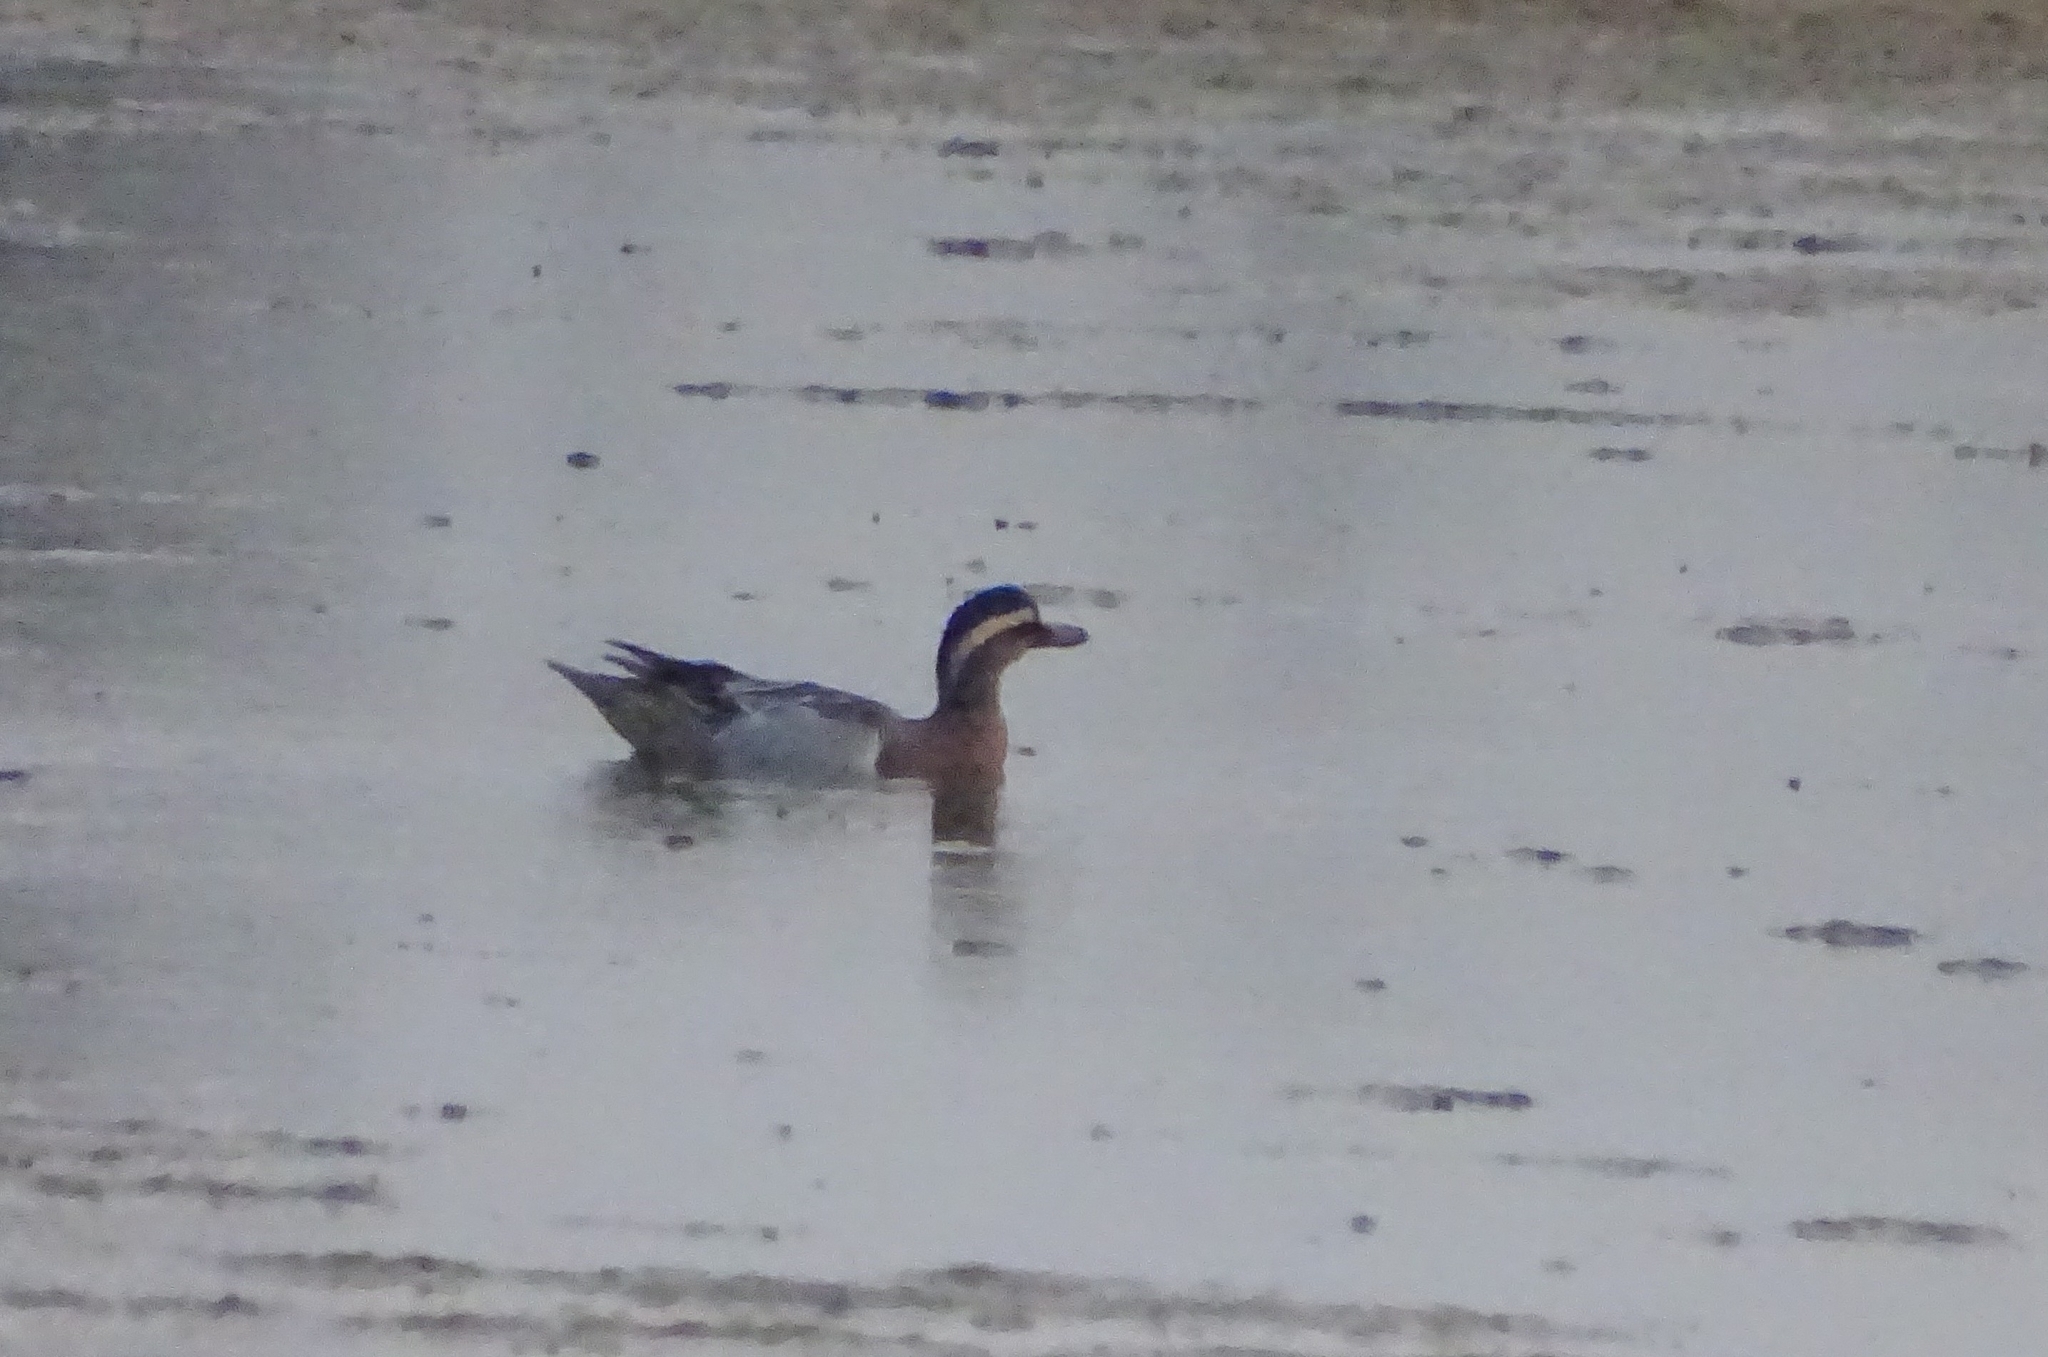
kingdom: Animalia
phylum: Chordata
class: Aves
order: Anseriformes
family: Anatidae
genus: Spatula
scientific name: Spatula querquedula
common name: Garganey
